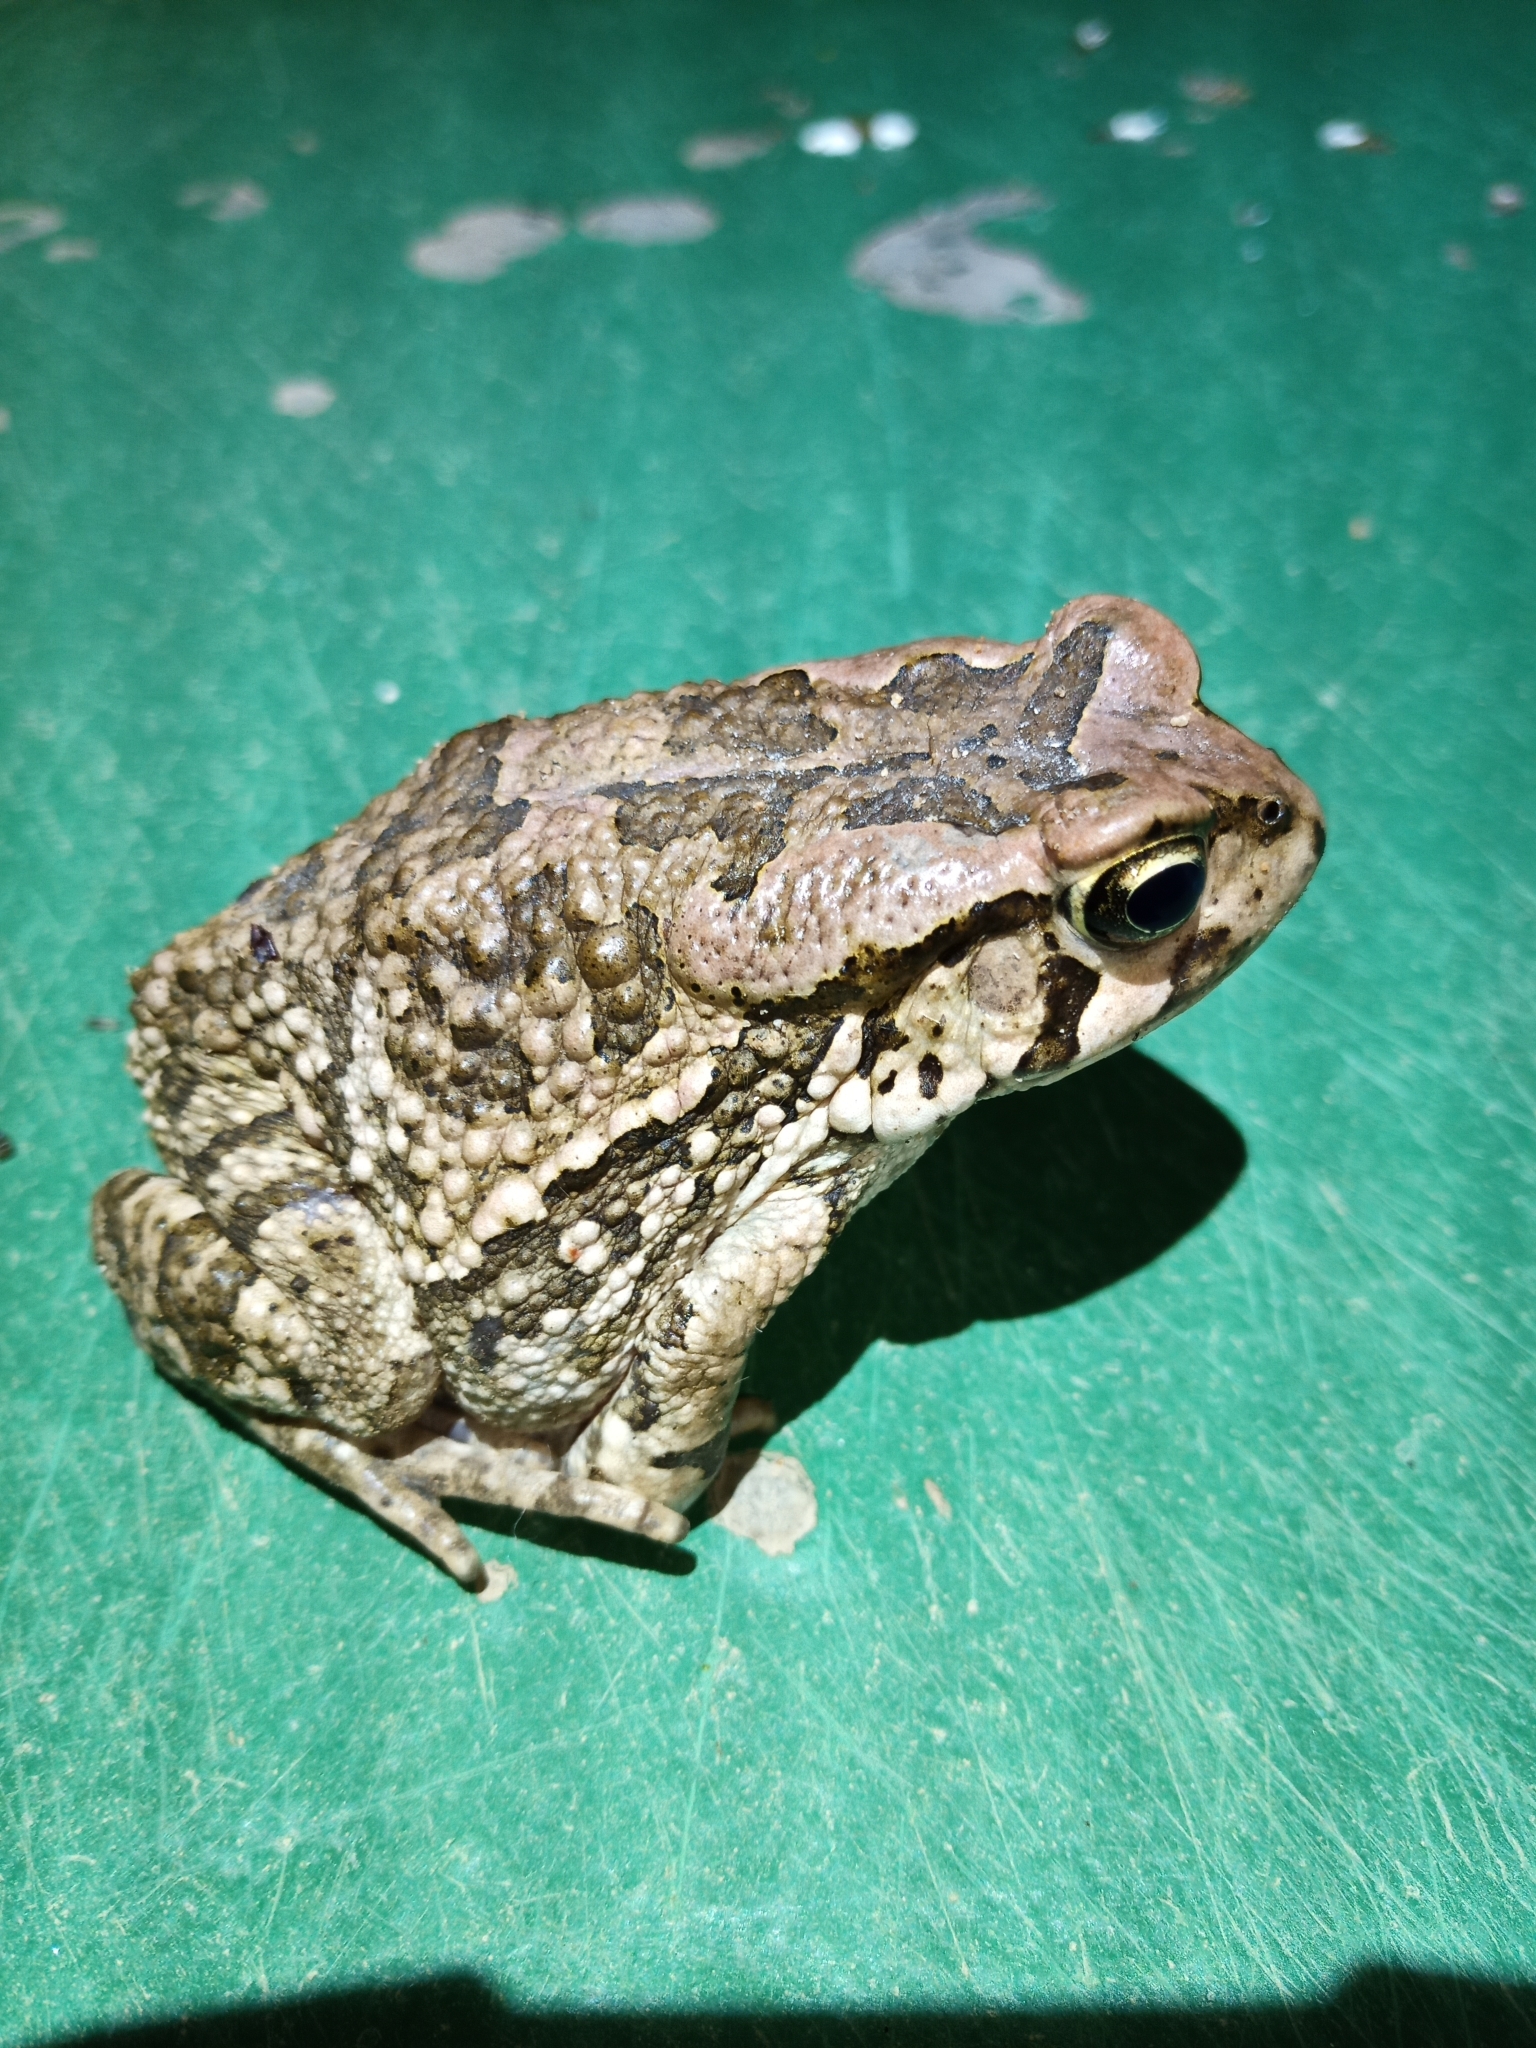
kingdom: Animalia
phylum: Chordata
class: Amphibia
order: Anura
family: Bufonidae
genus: Sclerophrys
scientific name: Sclerophrys capensis
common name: Ranger’s toad
